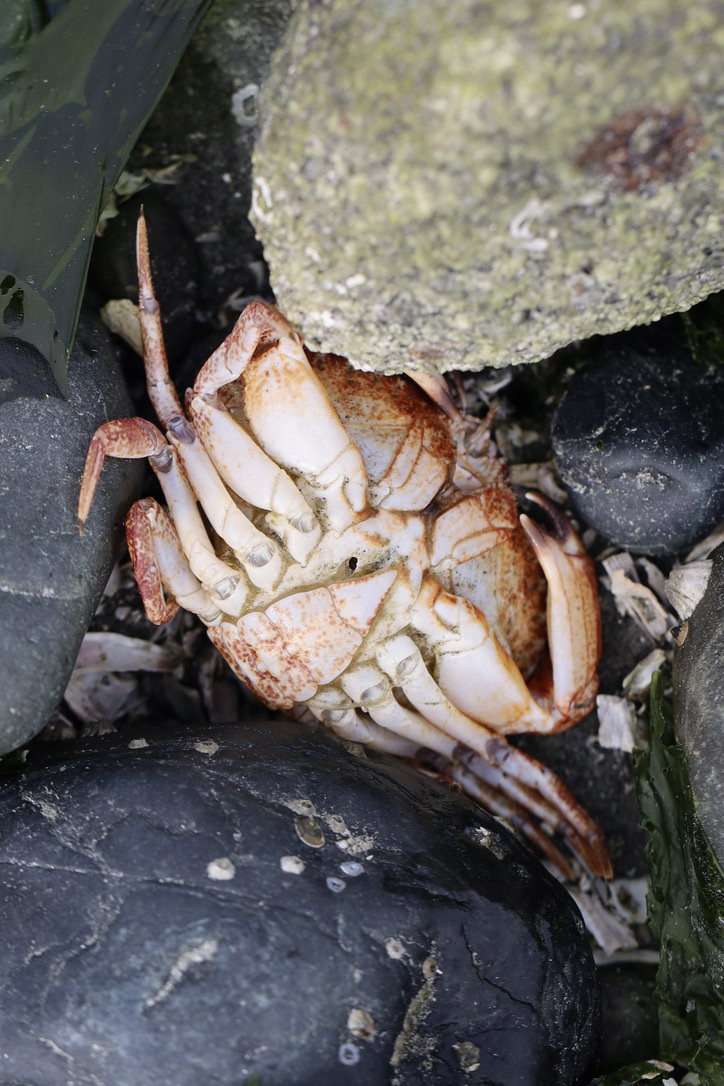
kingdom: Animalia
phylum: Arthropoda
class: Malacostraca
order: Decapoda
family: Cancridae
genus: Cancer
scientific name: Cancer productus
